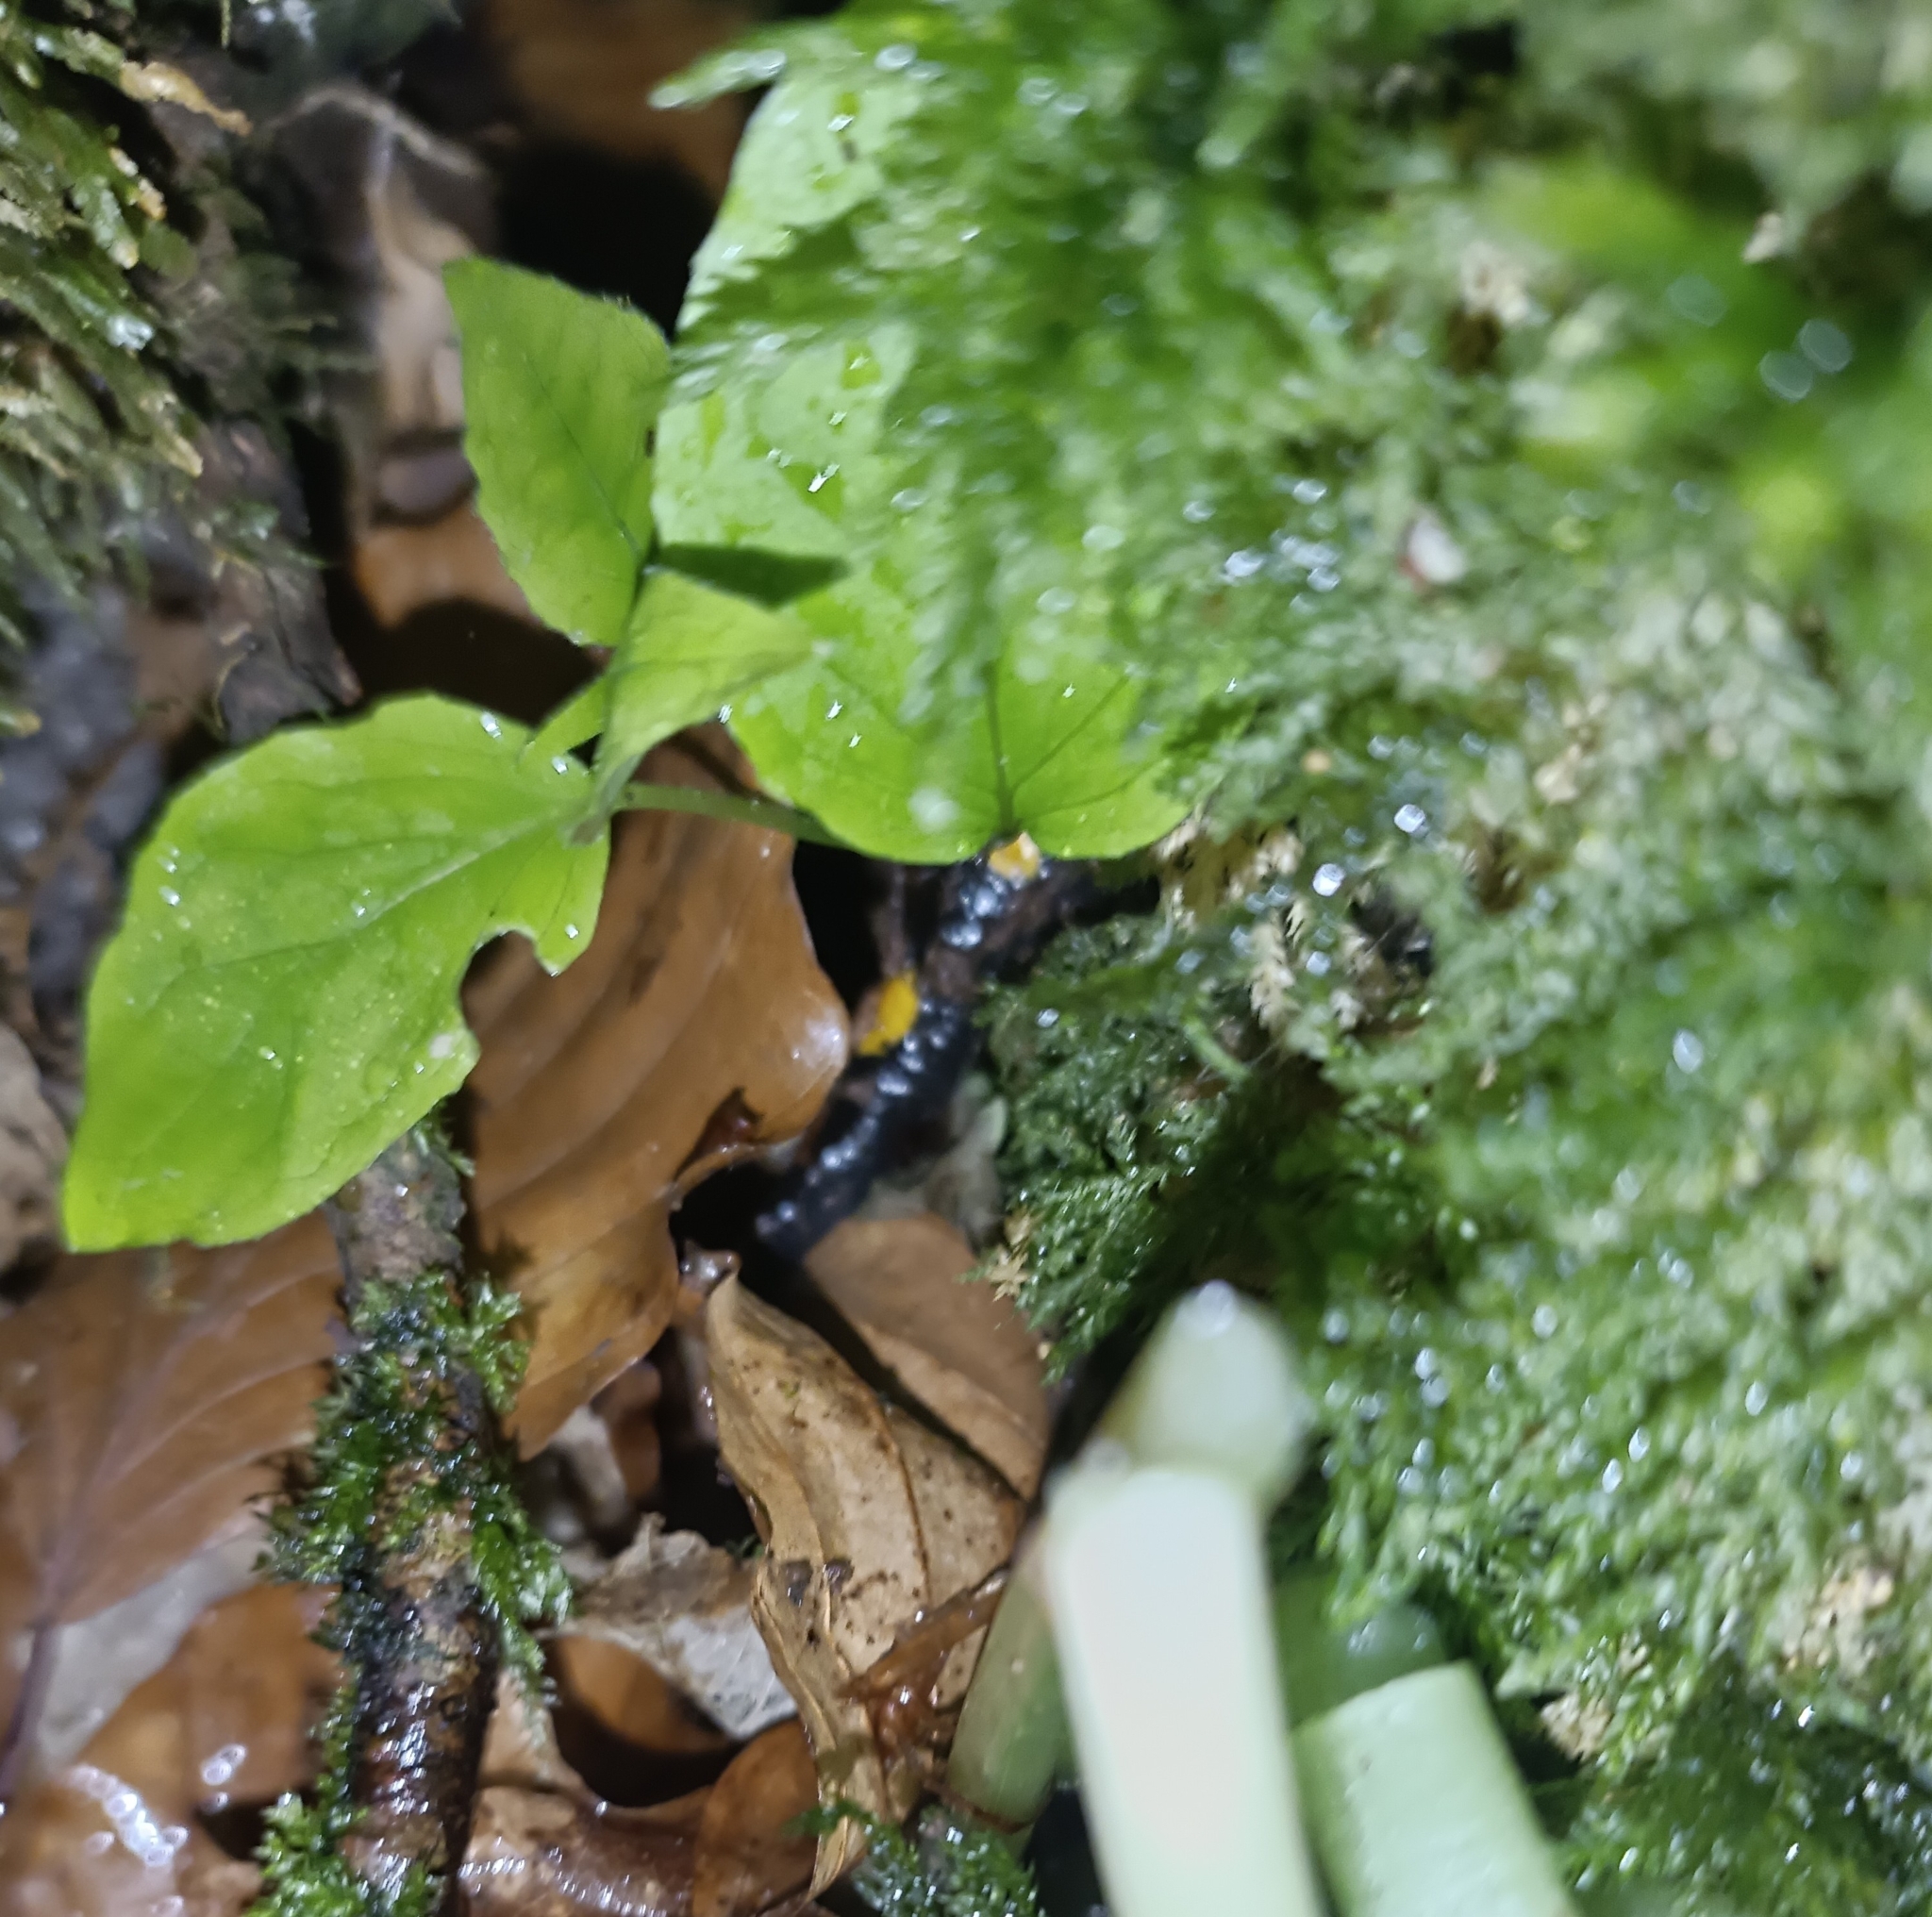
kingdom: Animalia
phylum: Chordata
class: Amphibia
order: Caudata
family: Salamandridae
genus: Salamandra
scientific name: Salamandra salamandra
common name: Fire salamander
